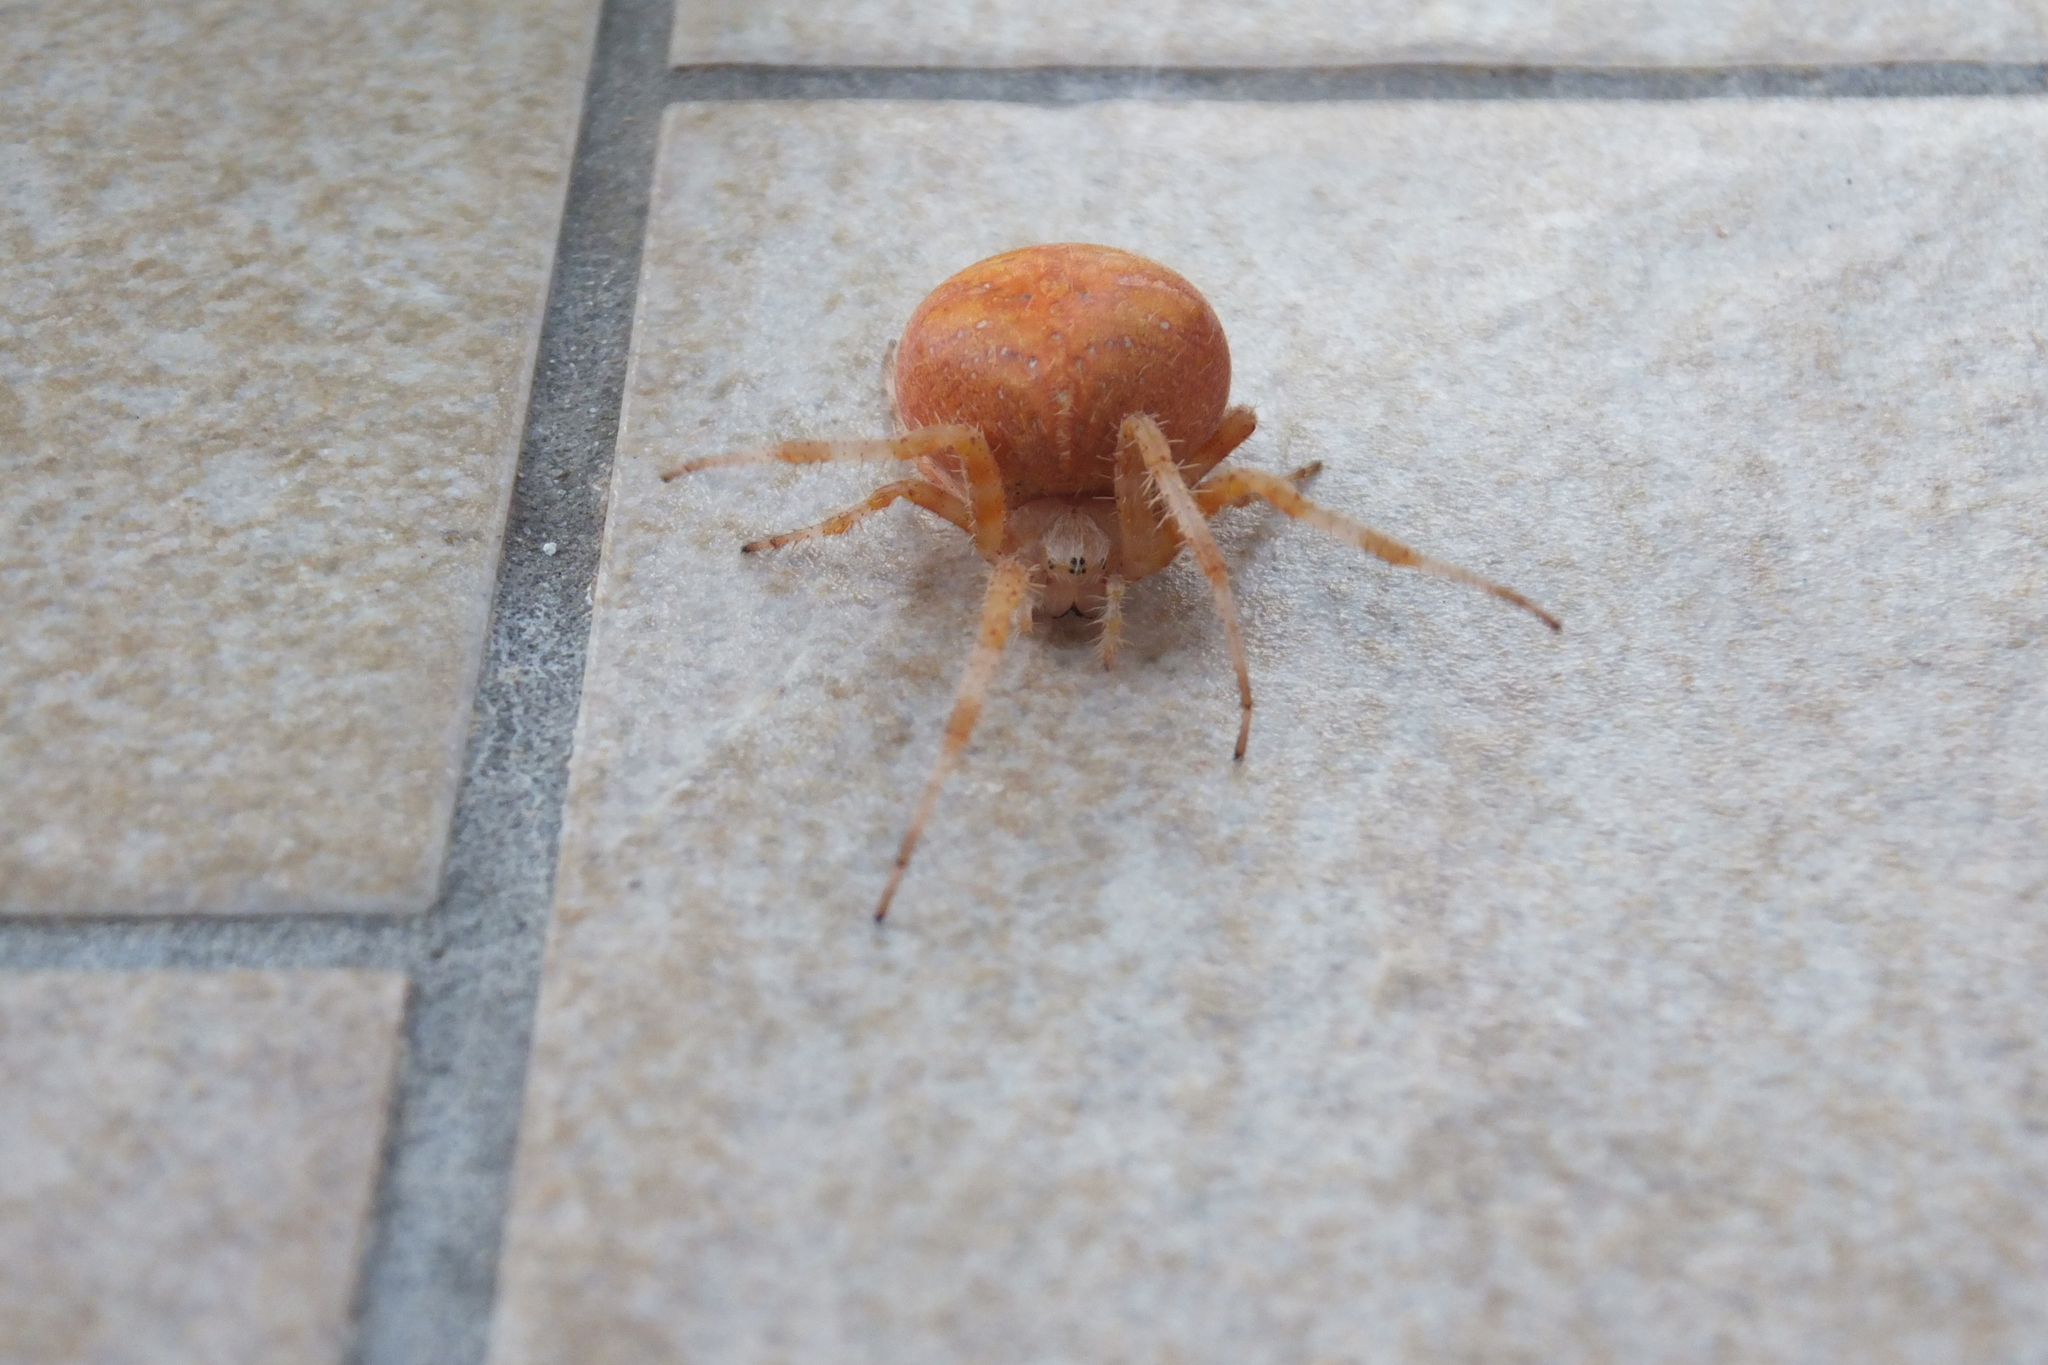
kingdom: Animalia
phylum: Arthropoda
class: Arachnida
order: Araneae
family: Araneidae
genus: Araneus
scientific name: Araneus diadematus
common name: Cross orbweaver
